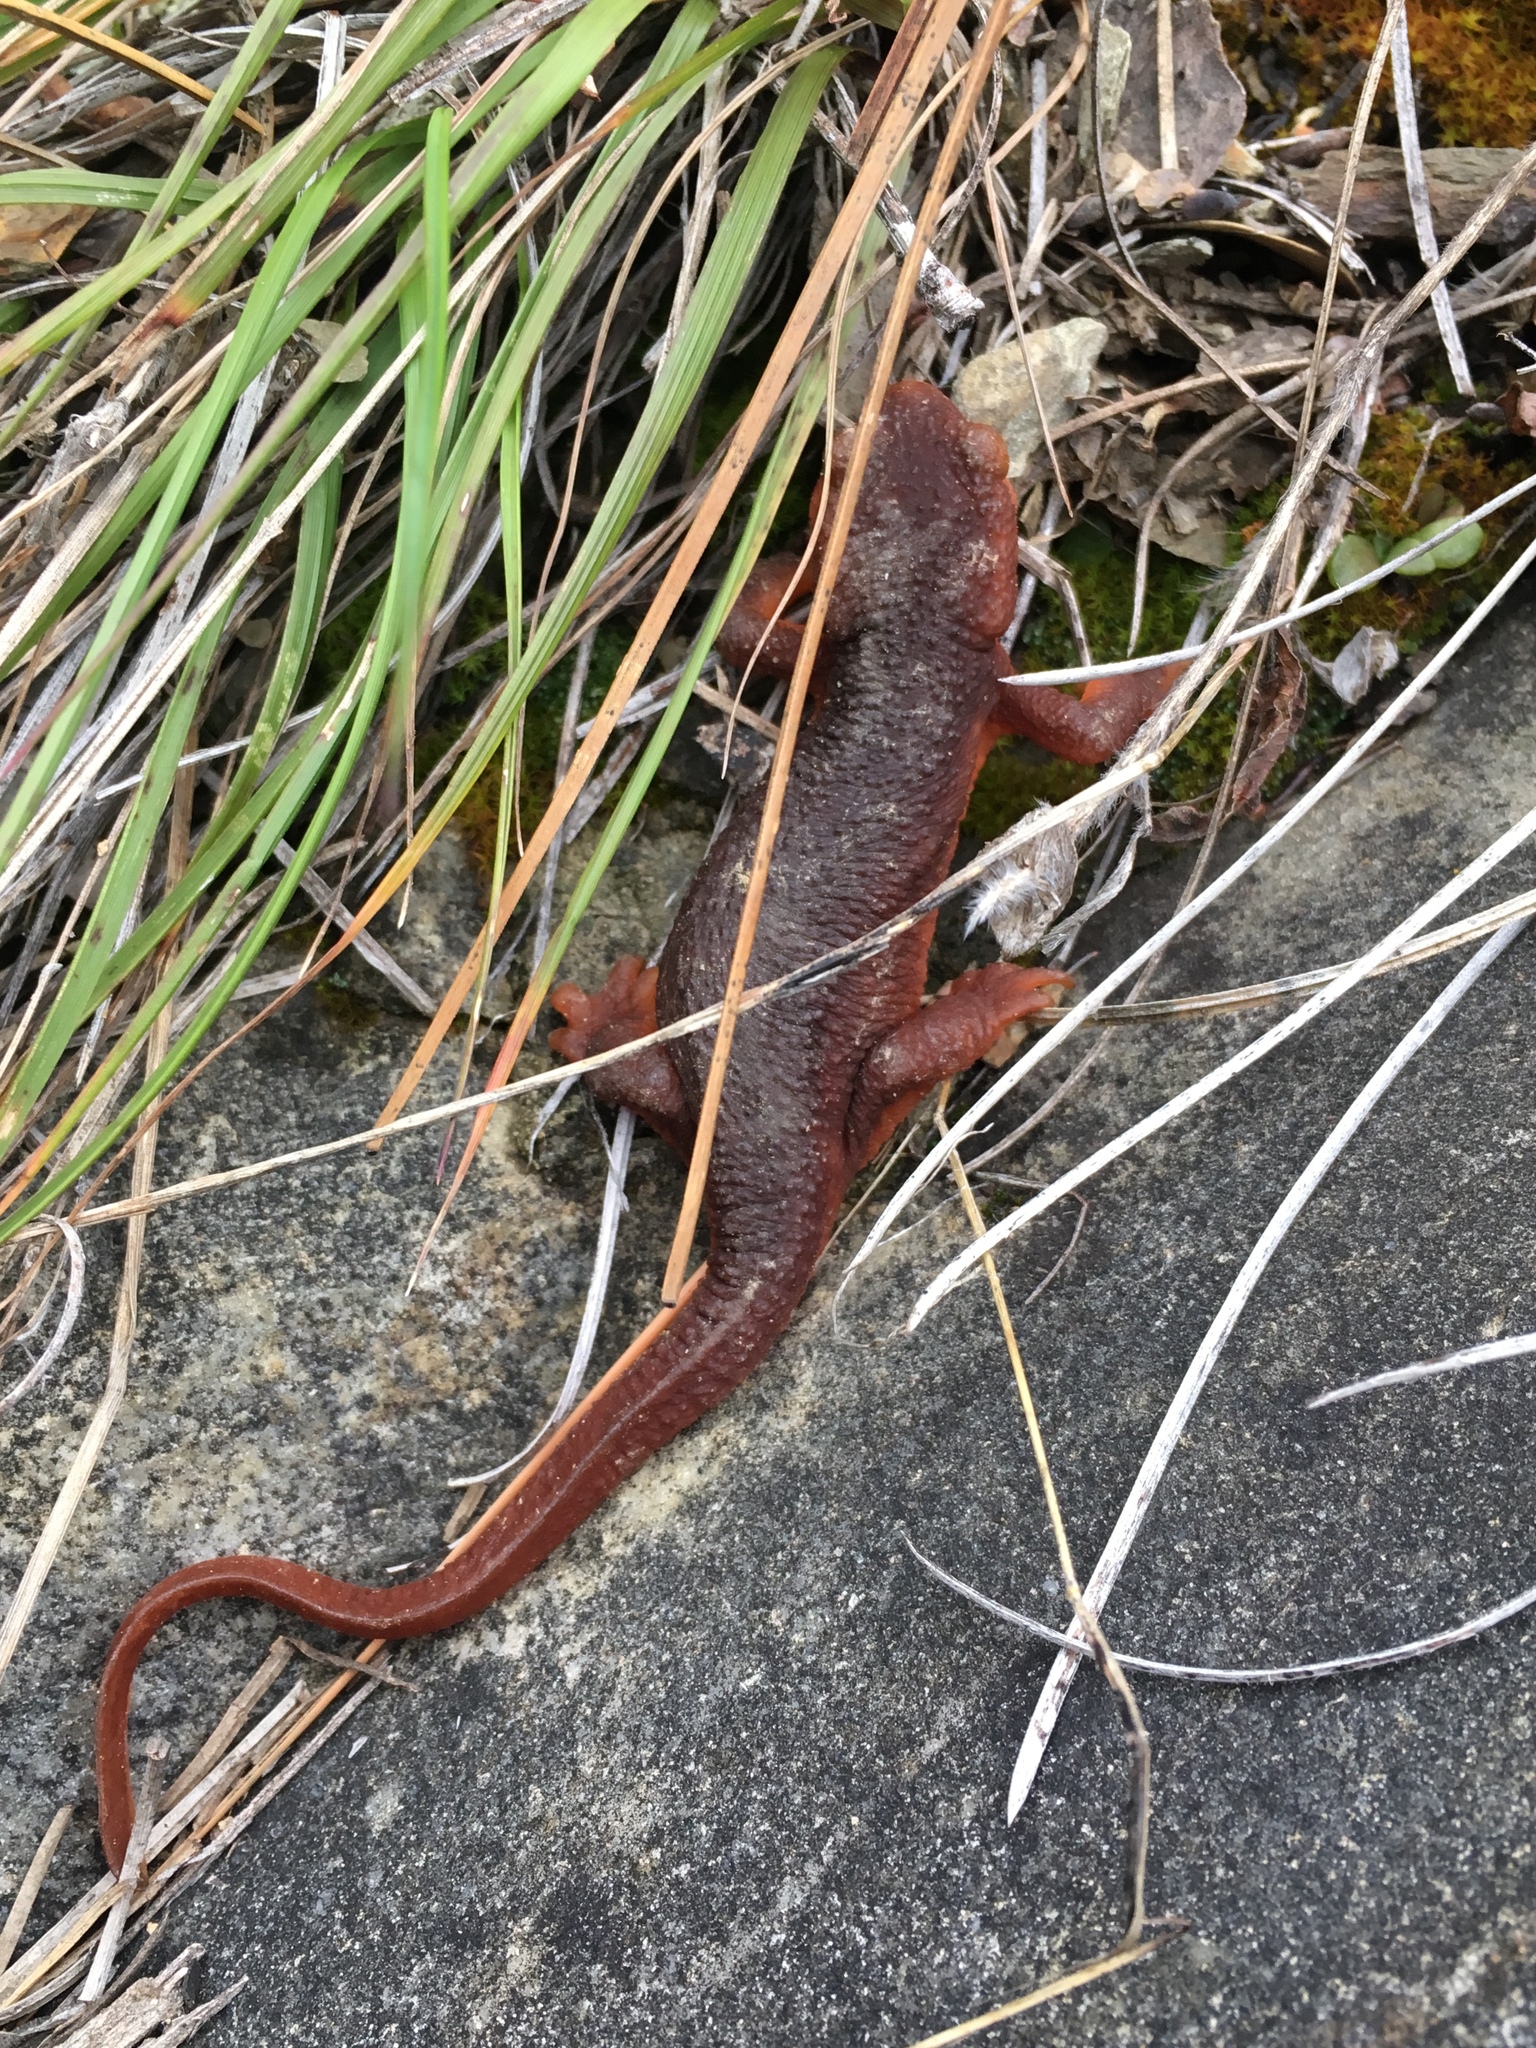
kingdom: Animalia
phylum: Chordata
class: Amphibia
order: Caudata
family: Salamandridae
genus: Taricha
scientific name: Taricha sierrae
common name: Sierra newt
